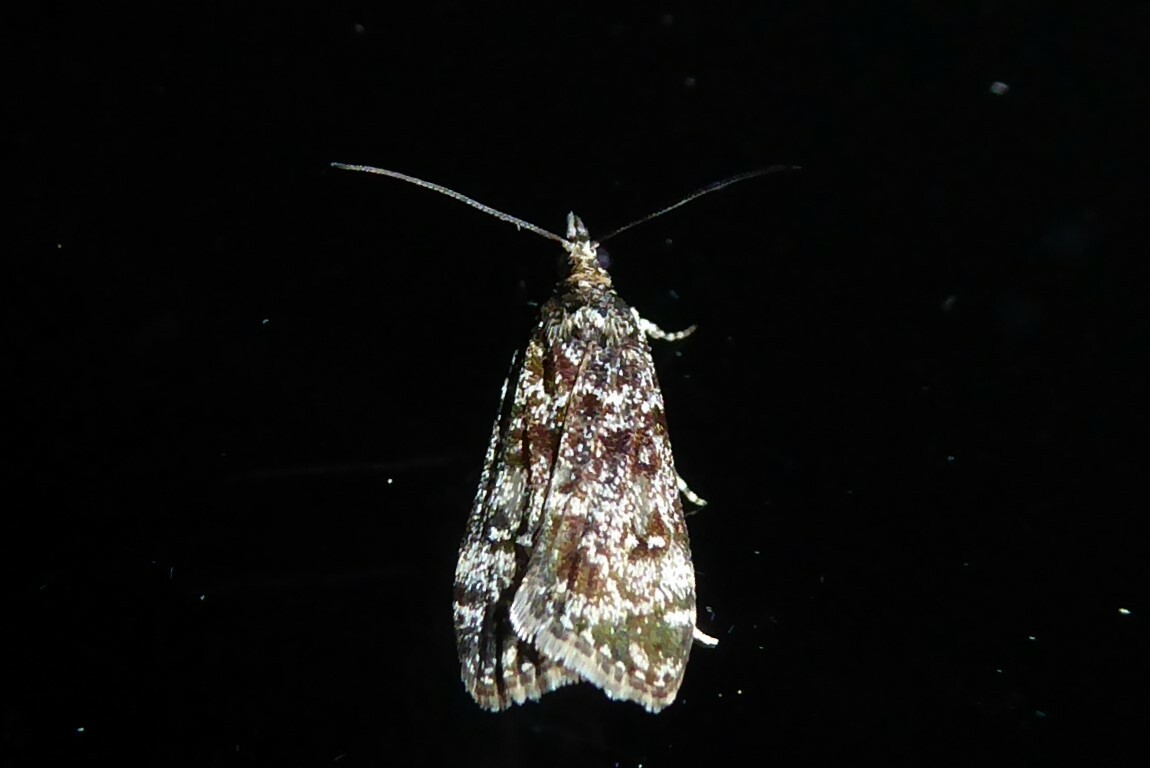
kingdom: Animalia
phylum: Arthropoda
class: Insecta
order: Lepidoptera
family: Crambidae
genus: Eudonia
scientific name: Eudonia philerga
